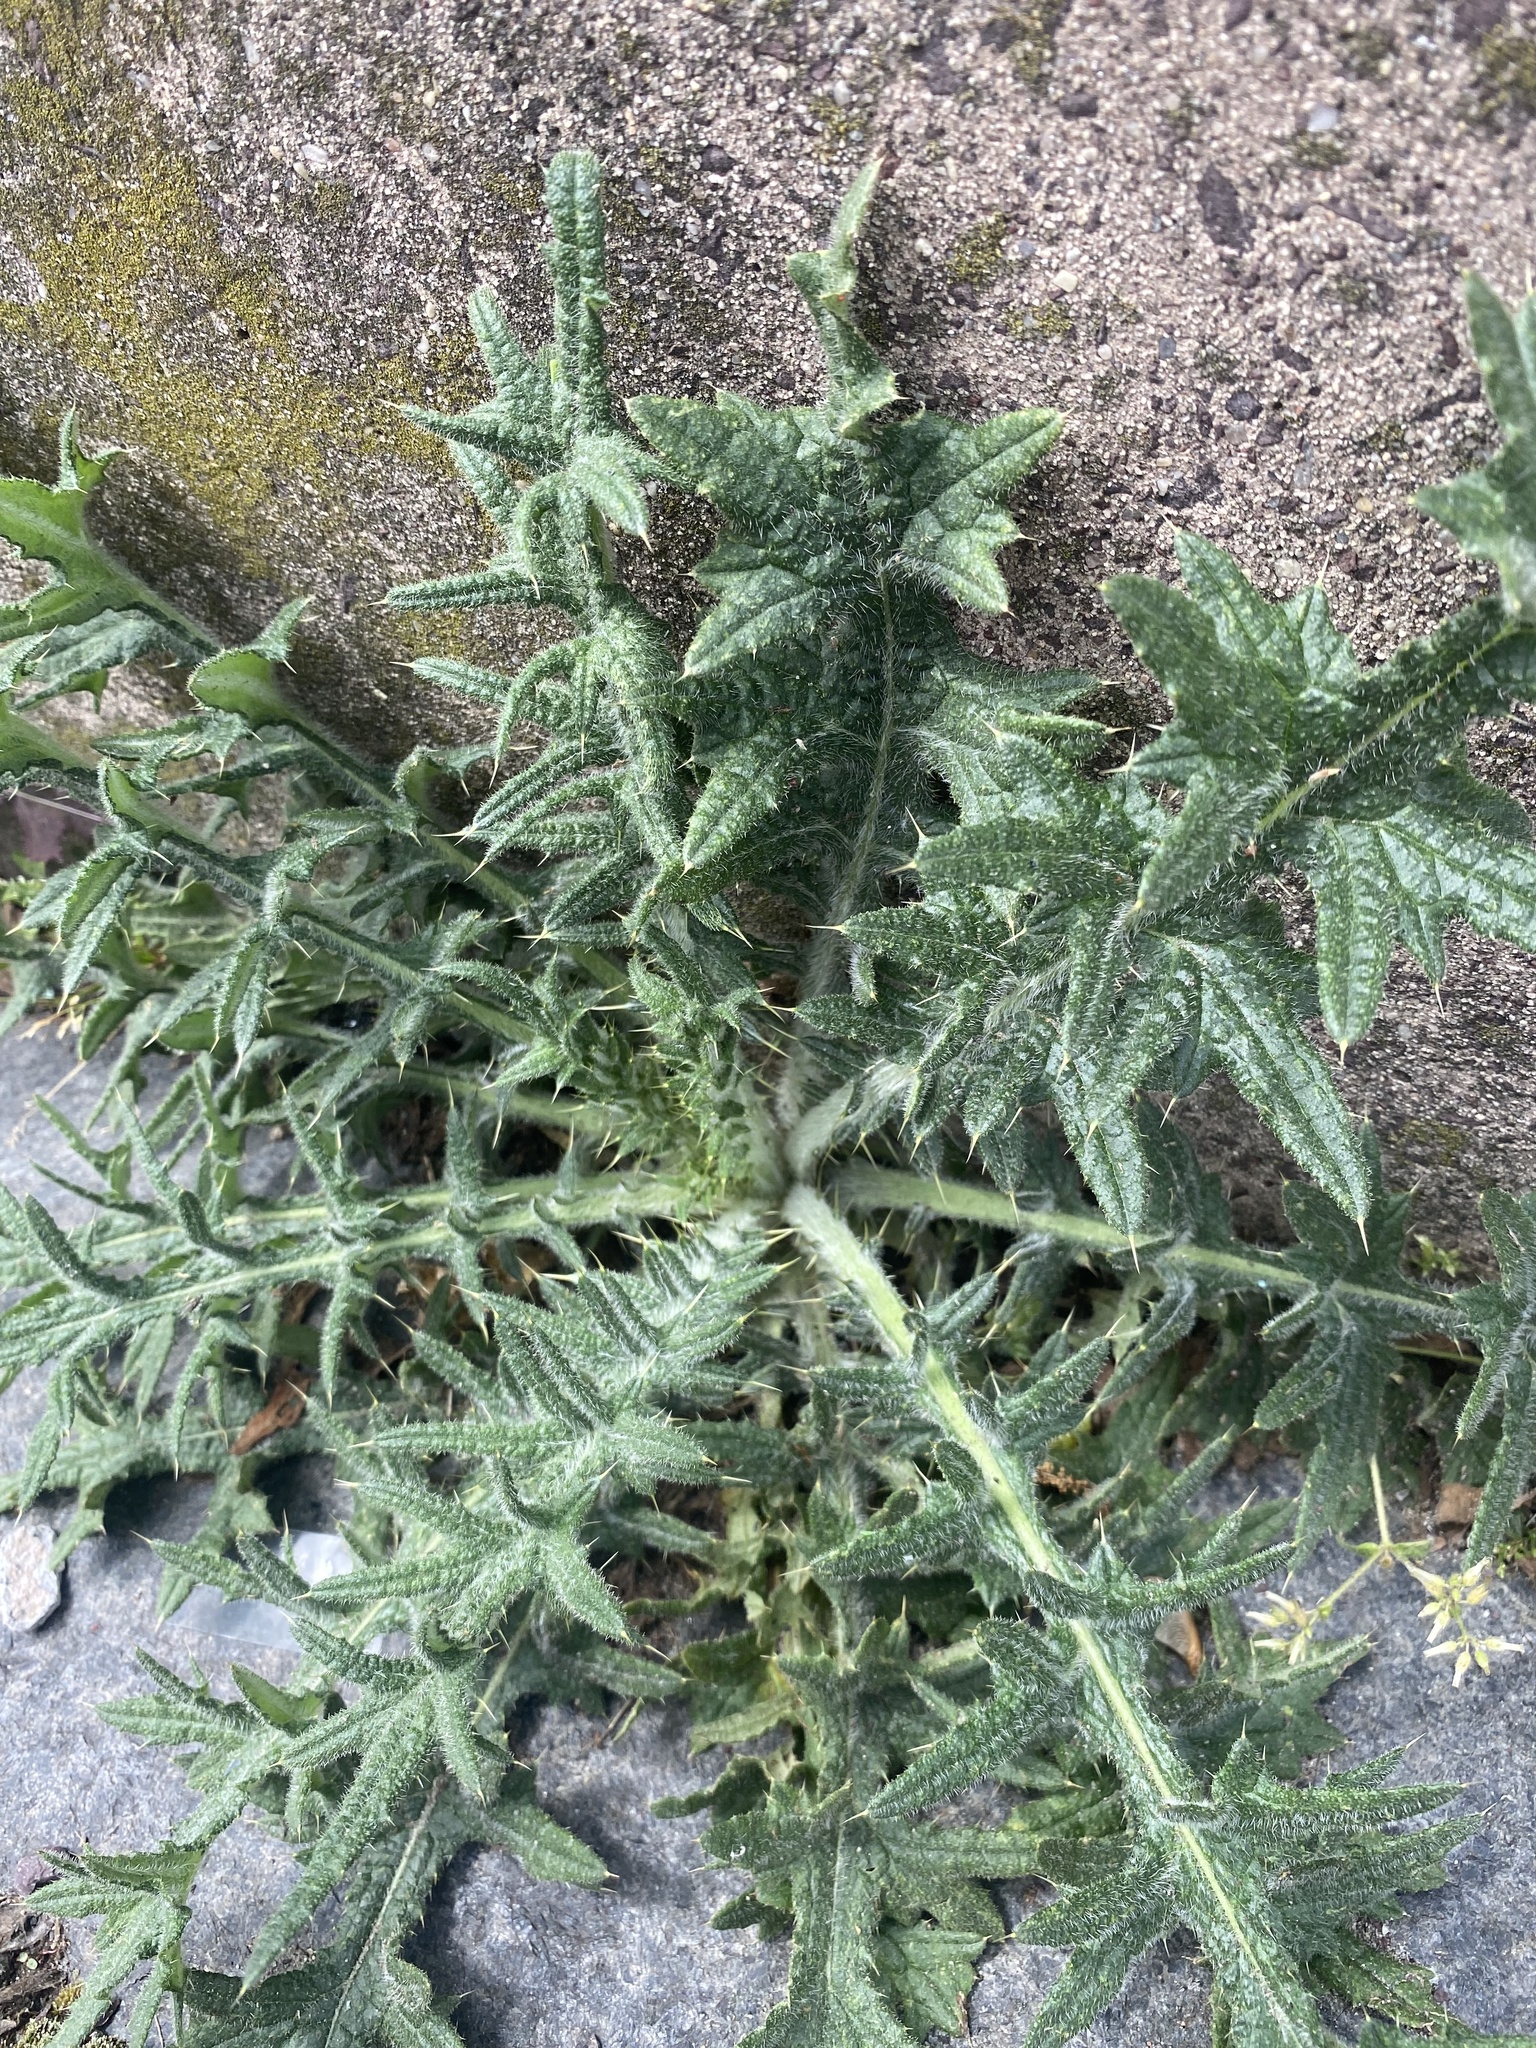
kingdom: Plantae
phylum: Tracheophyta
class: Magnoliopsida
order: Asterales
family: Asteraceae
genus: Cirsium
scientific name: Cirsium vulgare
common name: Bull thistle
